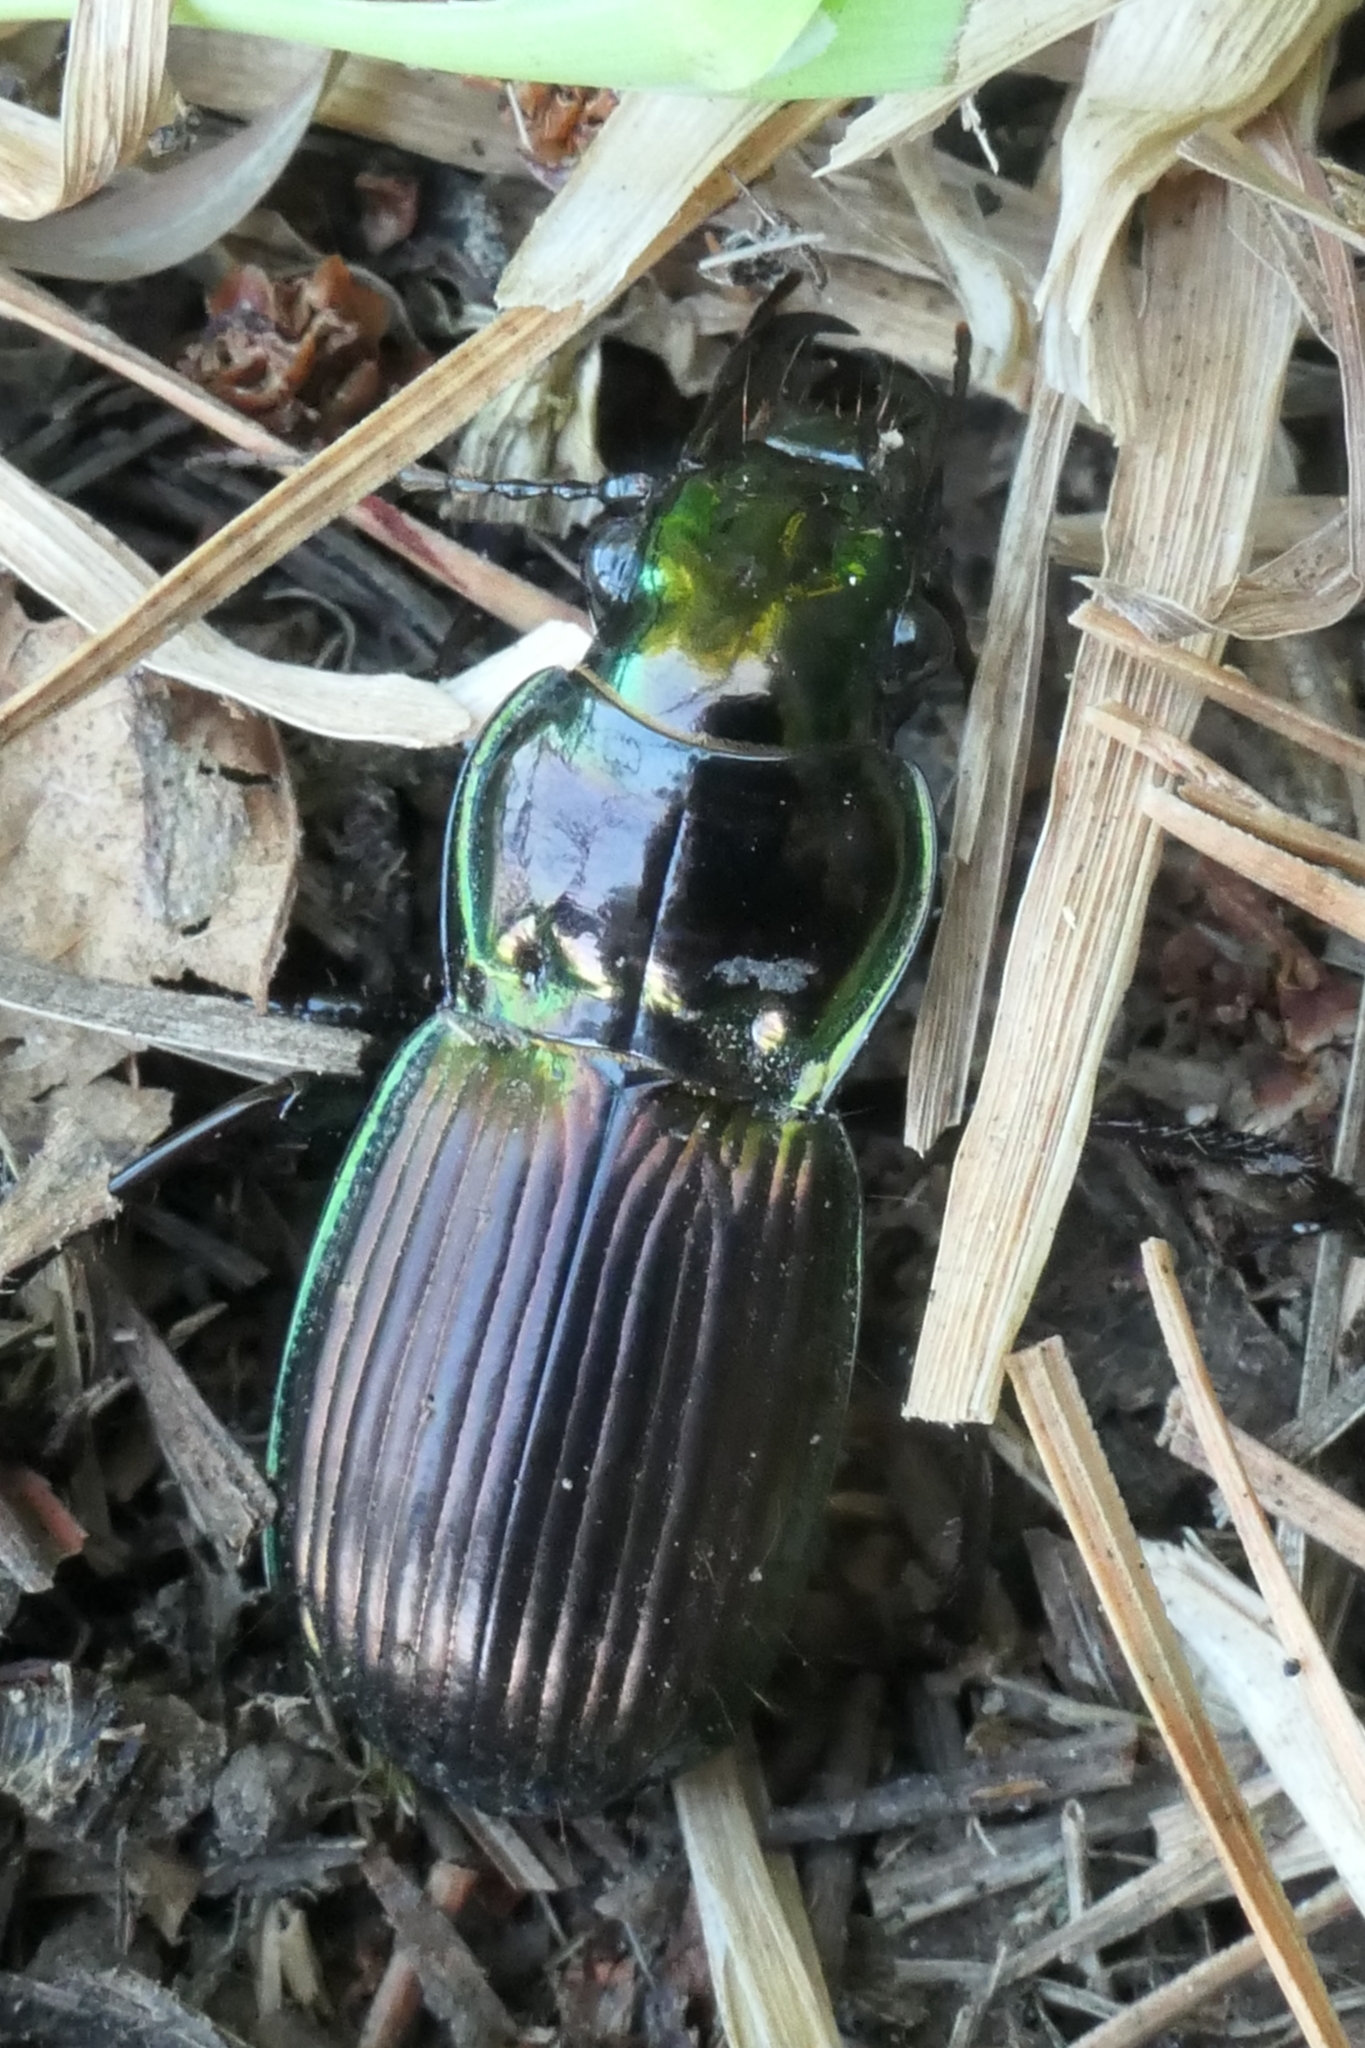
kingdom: Animalia
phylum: Arthropoda
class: Insecta
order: Coleoptera
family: Carabidae
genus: Megadromus
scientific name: Megadromus antarcticus
